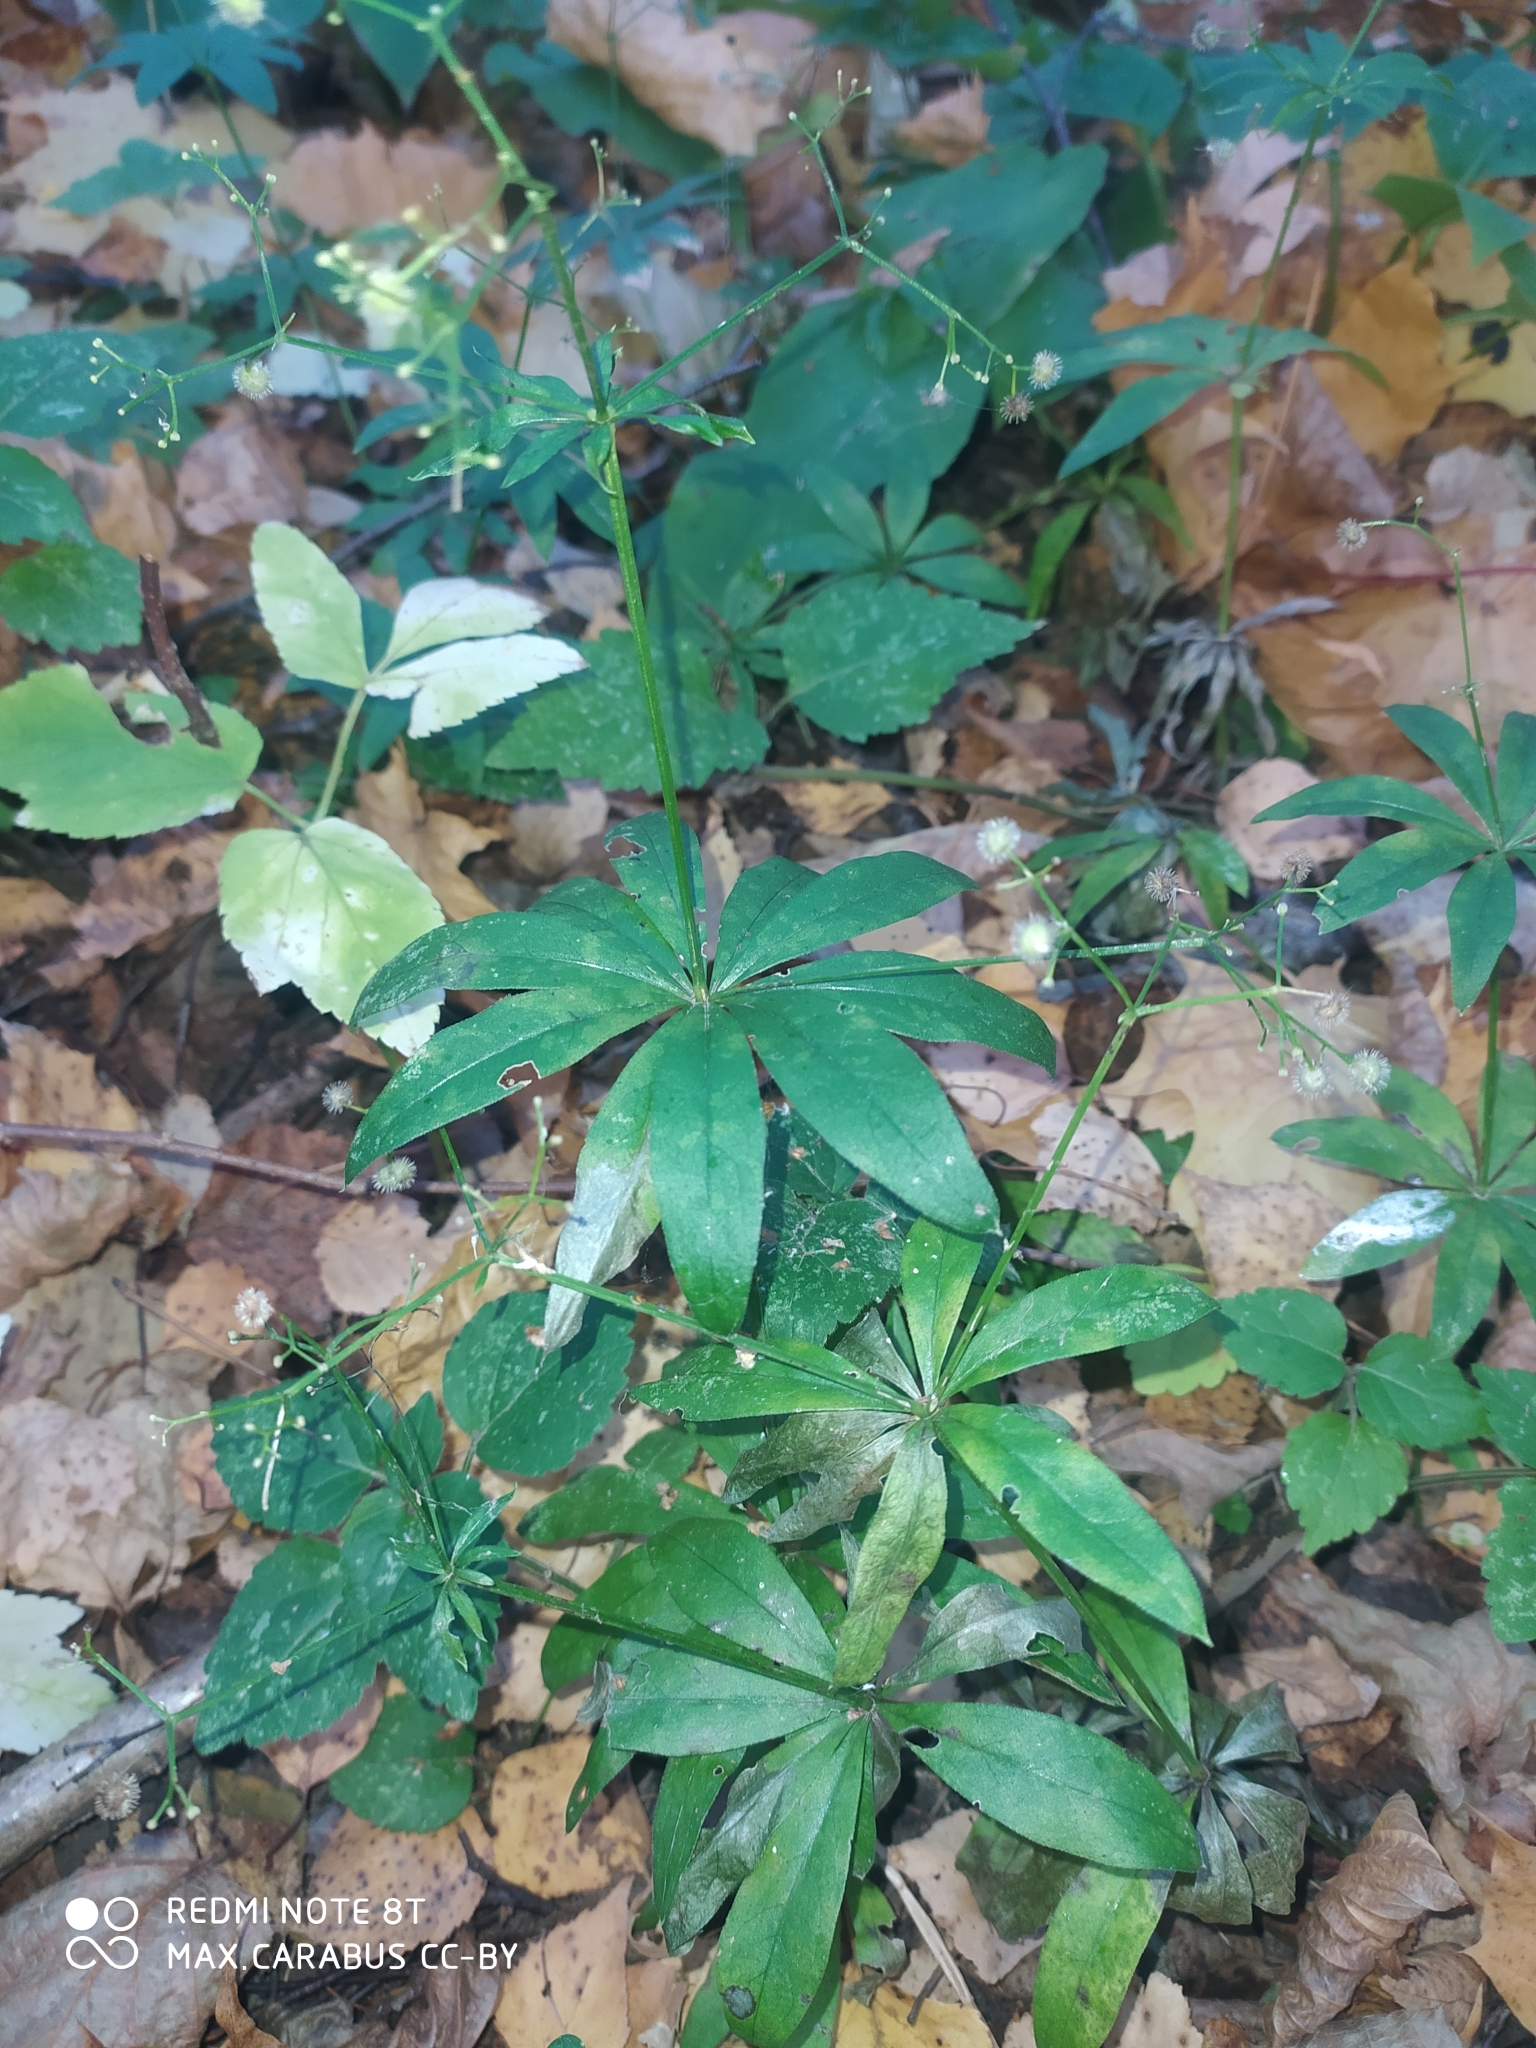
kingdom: Plantae
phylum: Tracheophyta
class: Magnoliopsida
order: Gentianales
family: Rubiaceae
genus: Galium
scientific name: Galium odoratum
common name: Sweet woodruff
